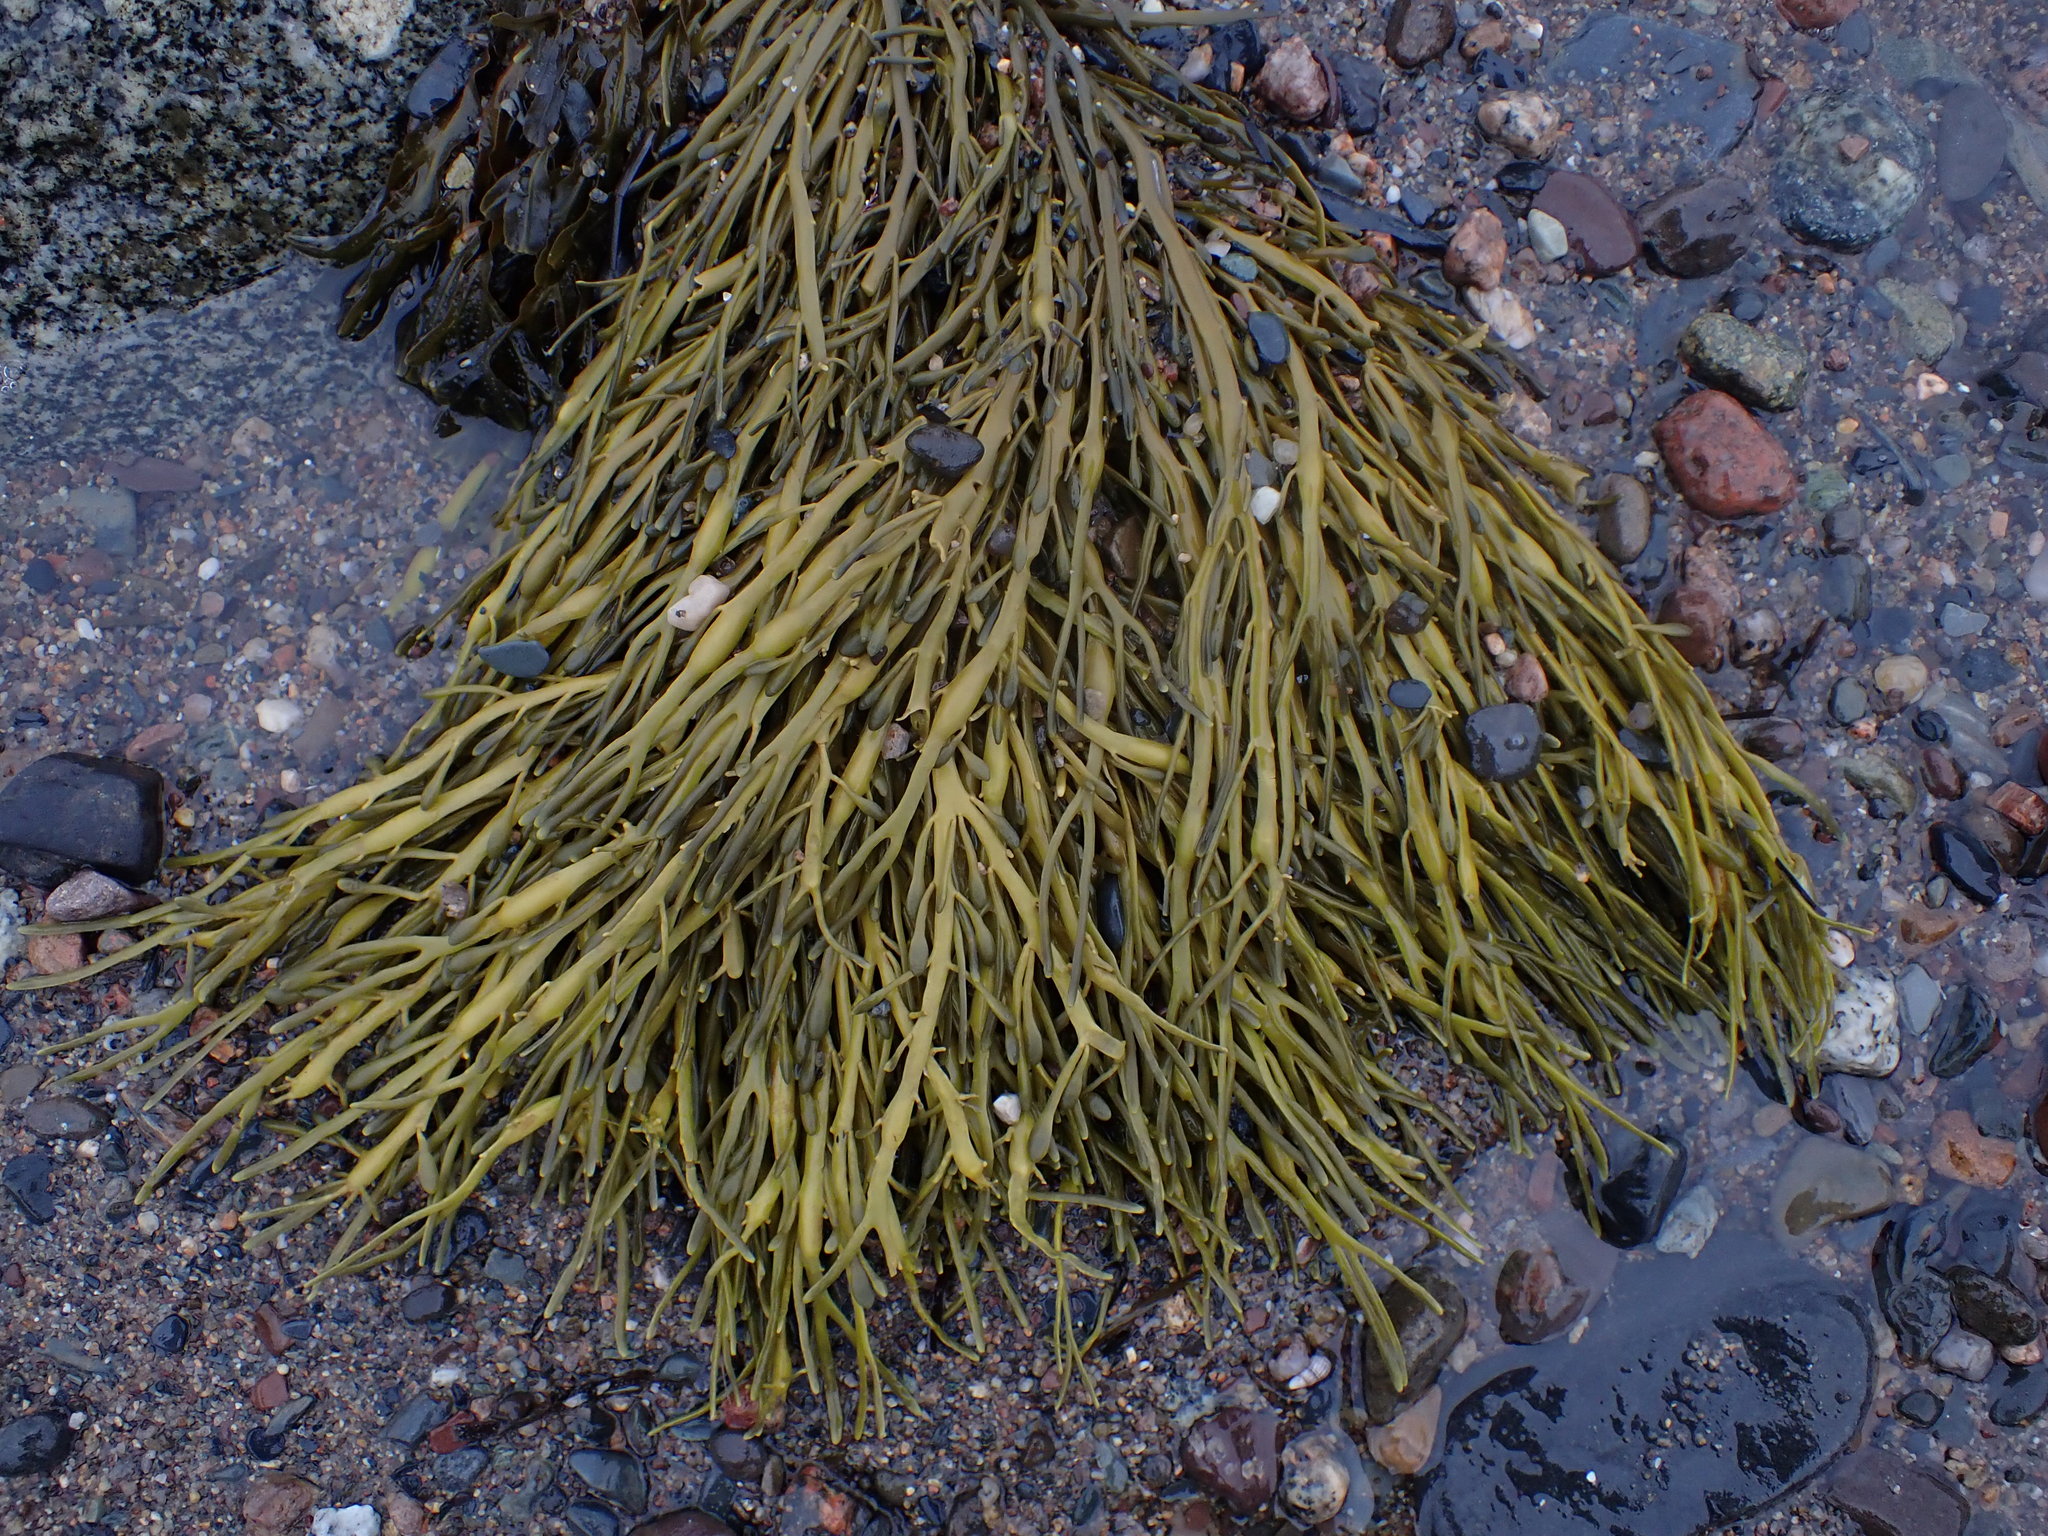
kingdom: Chromista
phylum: Ochrophyta
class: Phaeophyceae
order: Fucales
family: Fucaceae
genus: Ascophyllum
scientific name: Ascophyllum nodosum
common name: Knotted wrack
